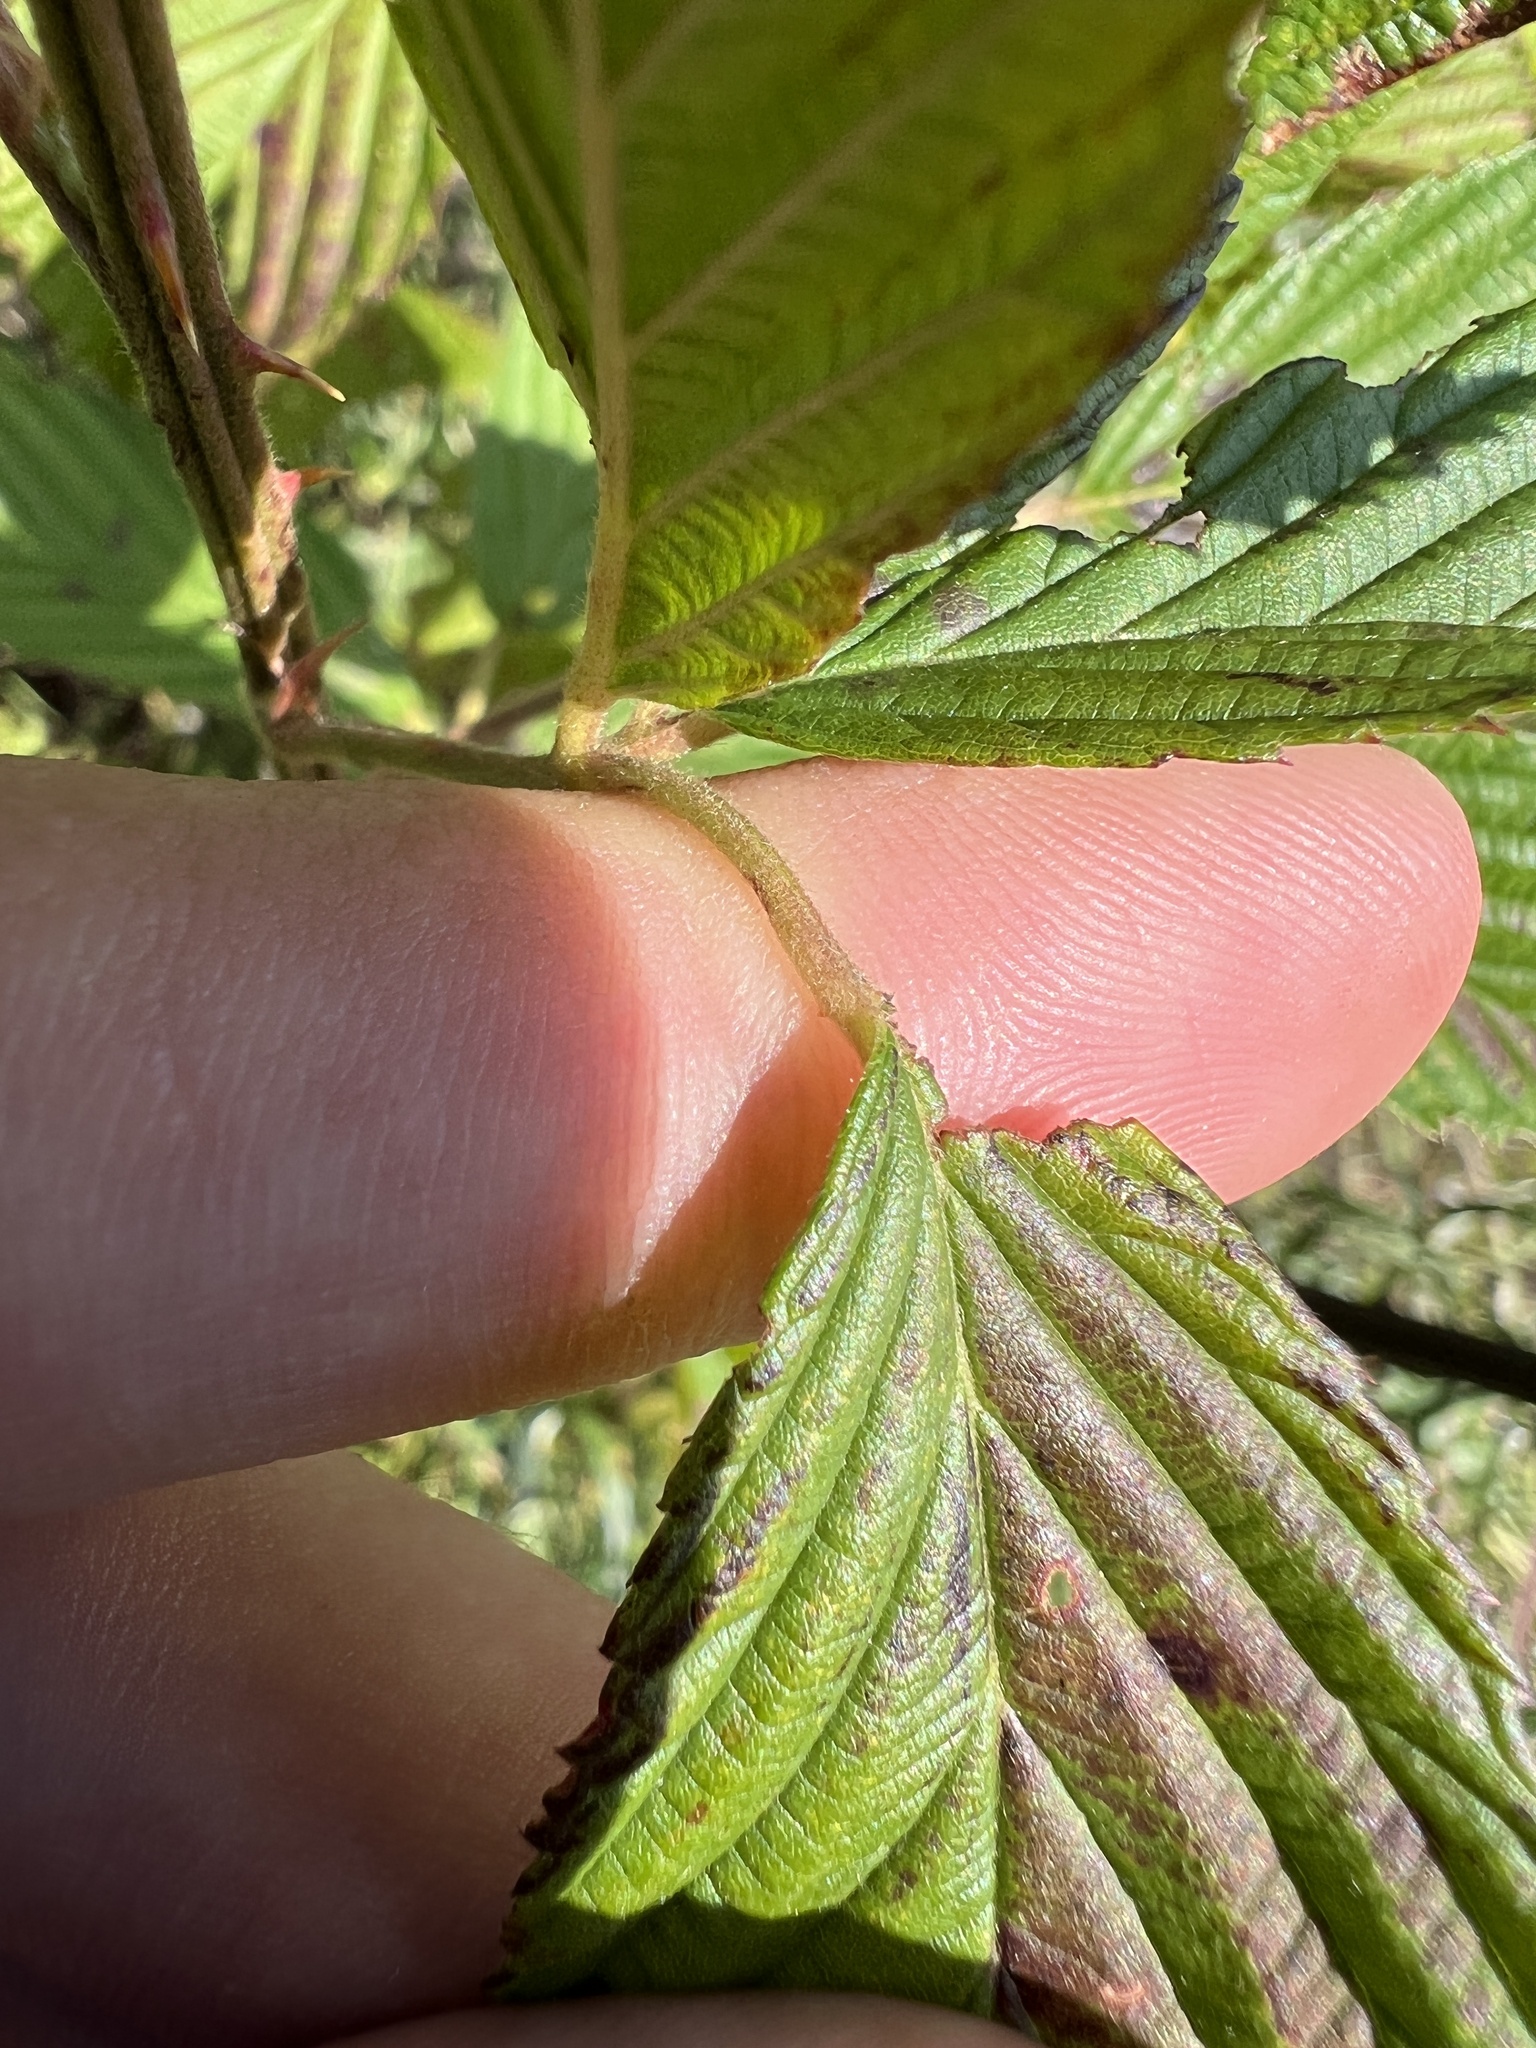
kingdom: Plantae
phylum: Tracheophyta
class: Magnoliopsida
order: Rosales
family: Rosaceae
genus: Rubus
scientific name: Rubus laudatus
